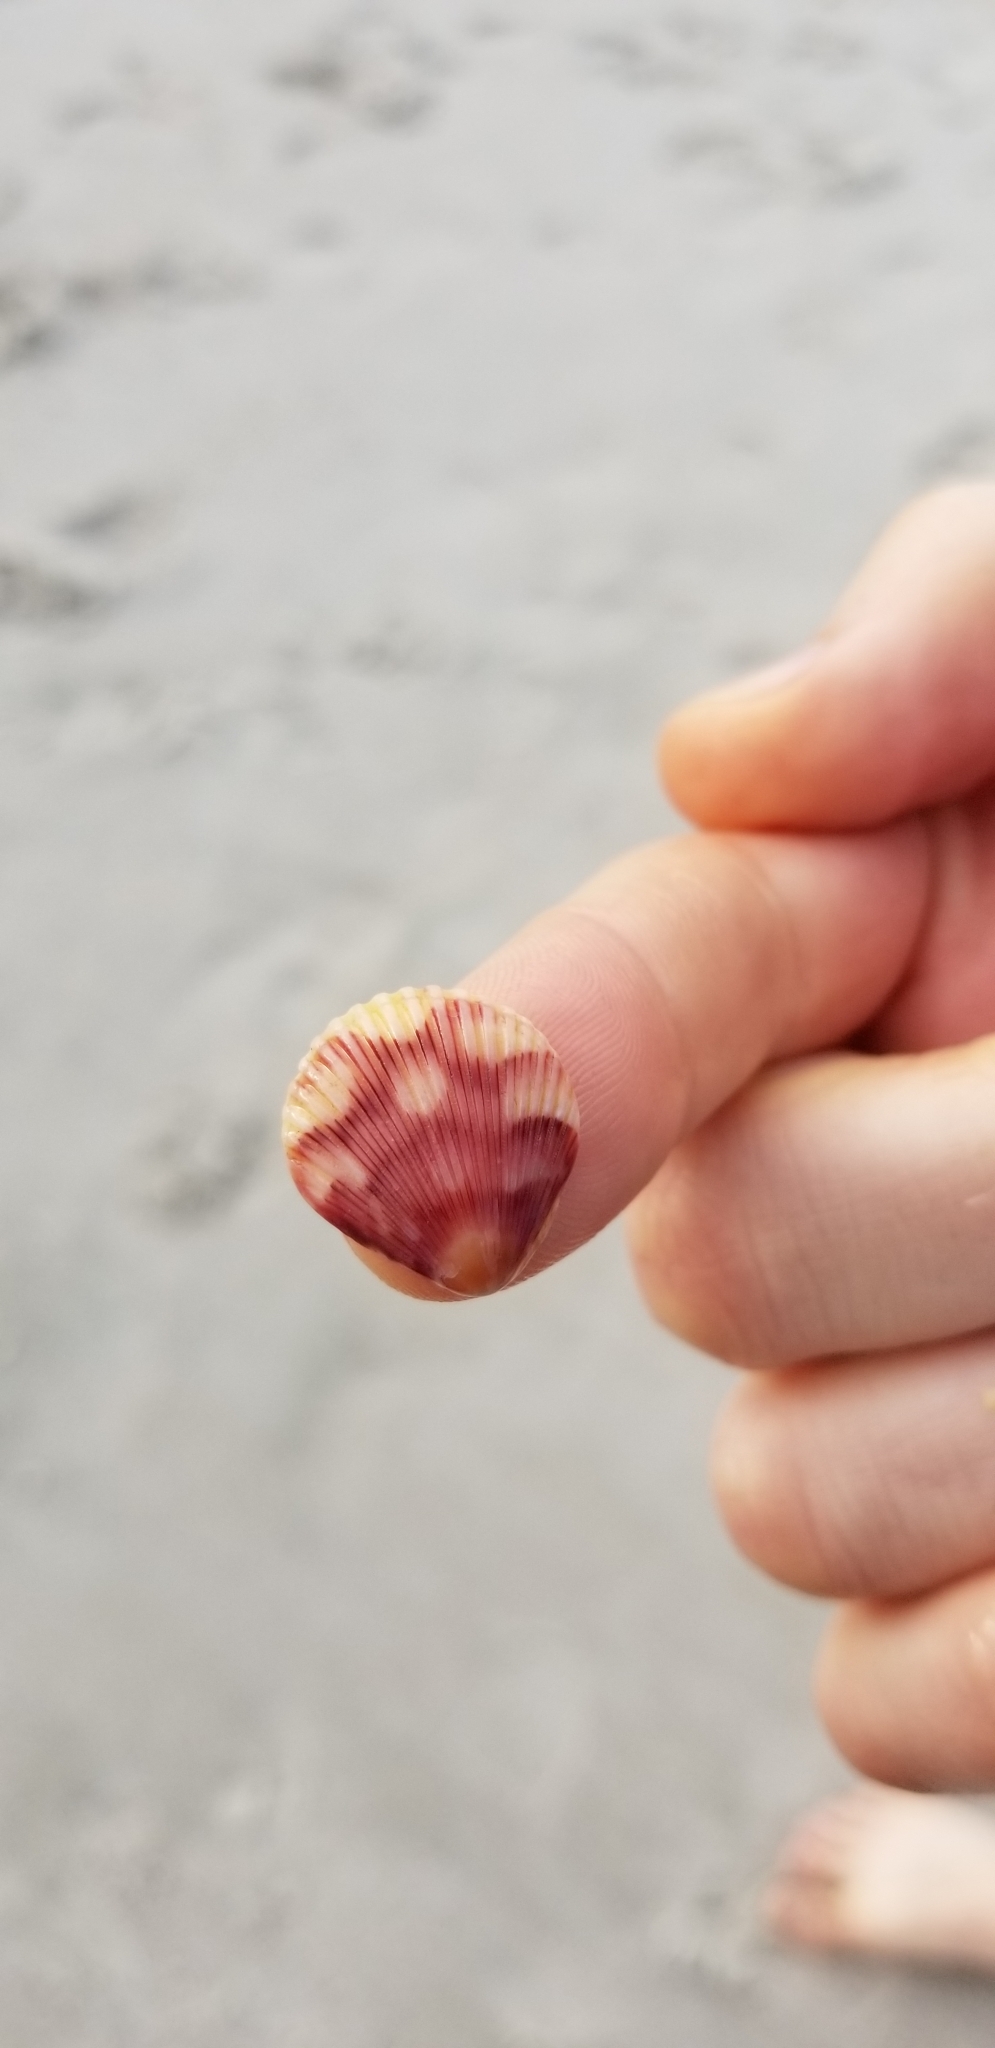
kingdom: Animalia
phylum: Mollusca
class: Bivalvia
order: Pectinida
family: Pectinidae
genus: Argopecten
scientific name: Argopecten gibbus
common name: Atlantic calico scallop
